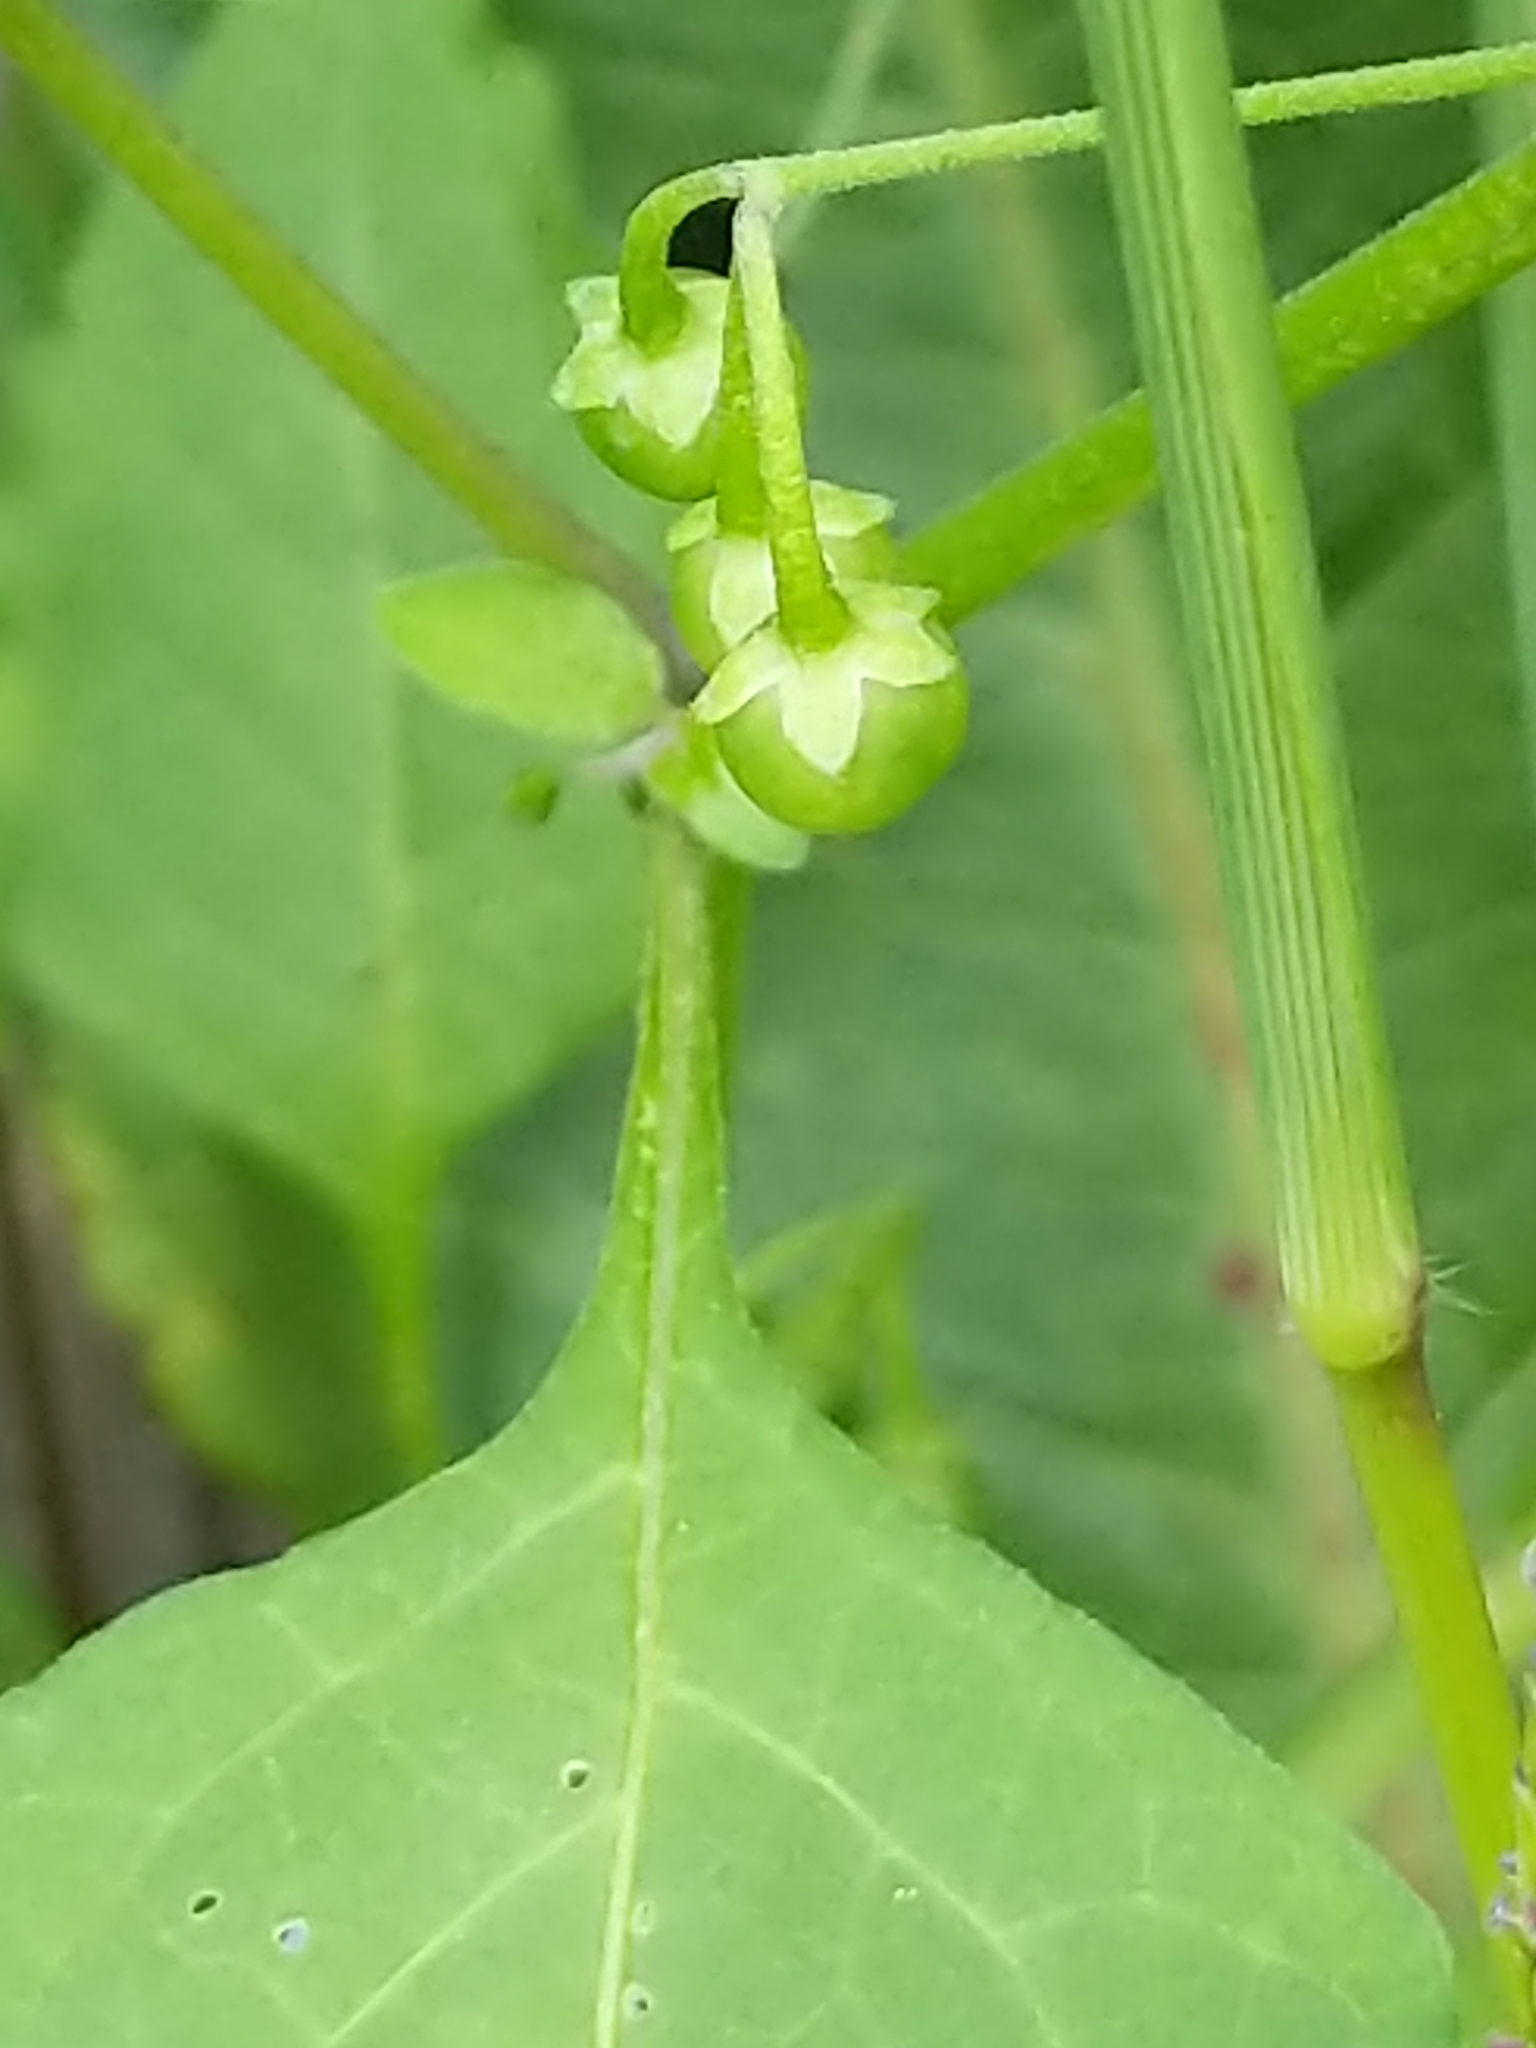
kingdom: Plantae
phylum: Tracheophyta
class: Magnoliopsida
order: Solanales
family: Solanaceae
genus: Solanum
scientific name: Solanum emulans
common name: Eastern black nightshade
